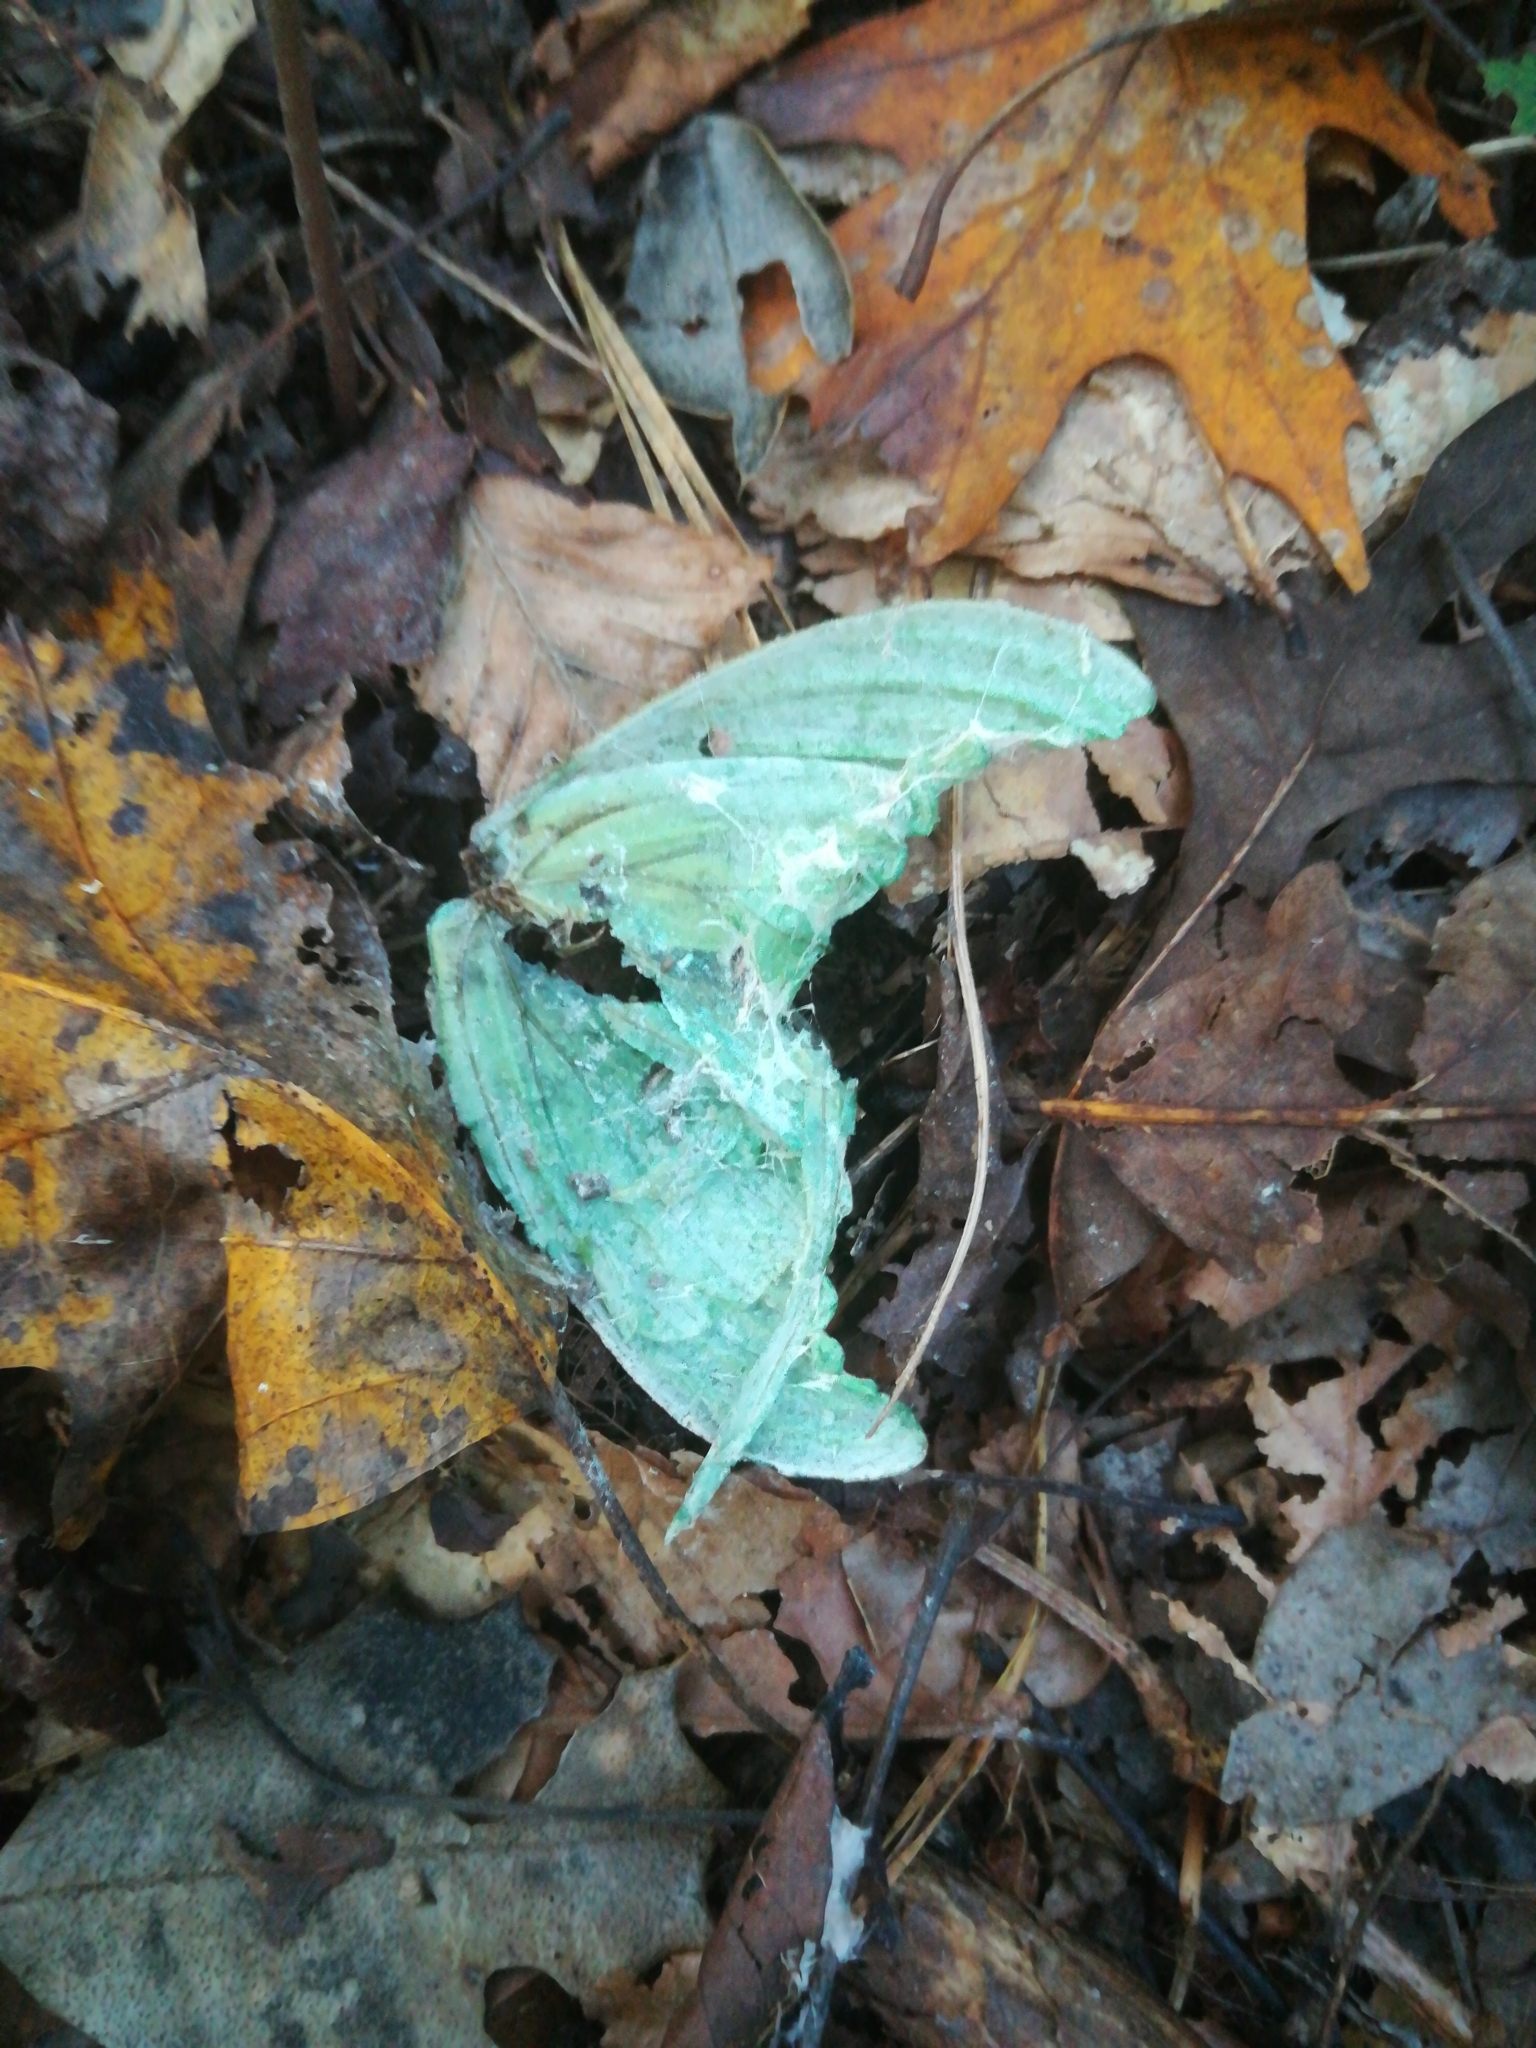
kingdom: Animalia
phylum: Arthropoda
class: Insecta
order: Lepidoptera
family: Saturniidae
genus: Actias
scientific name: Actias luna
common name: Luna moth
